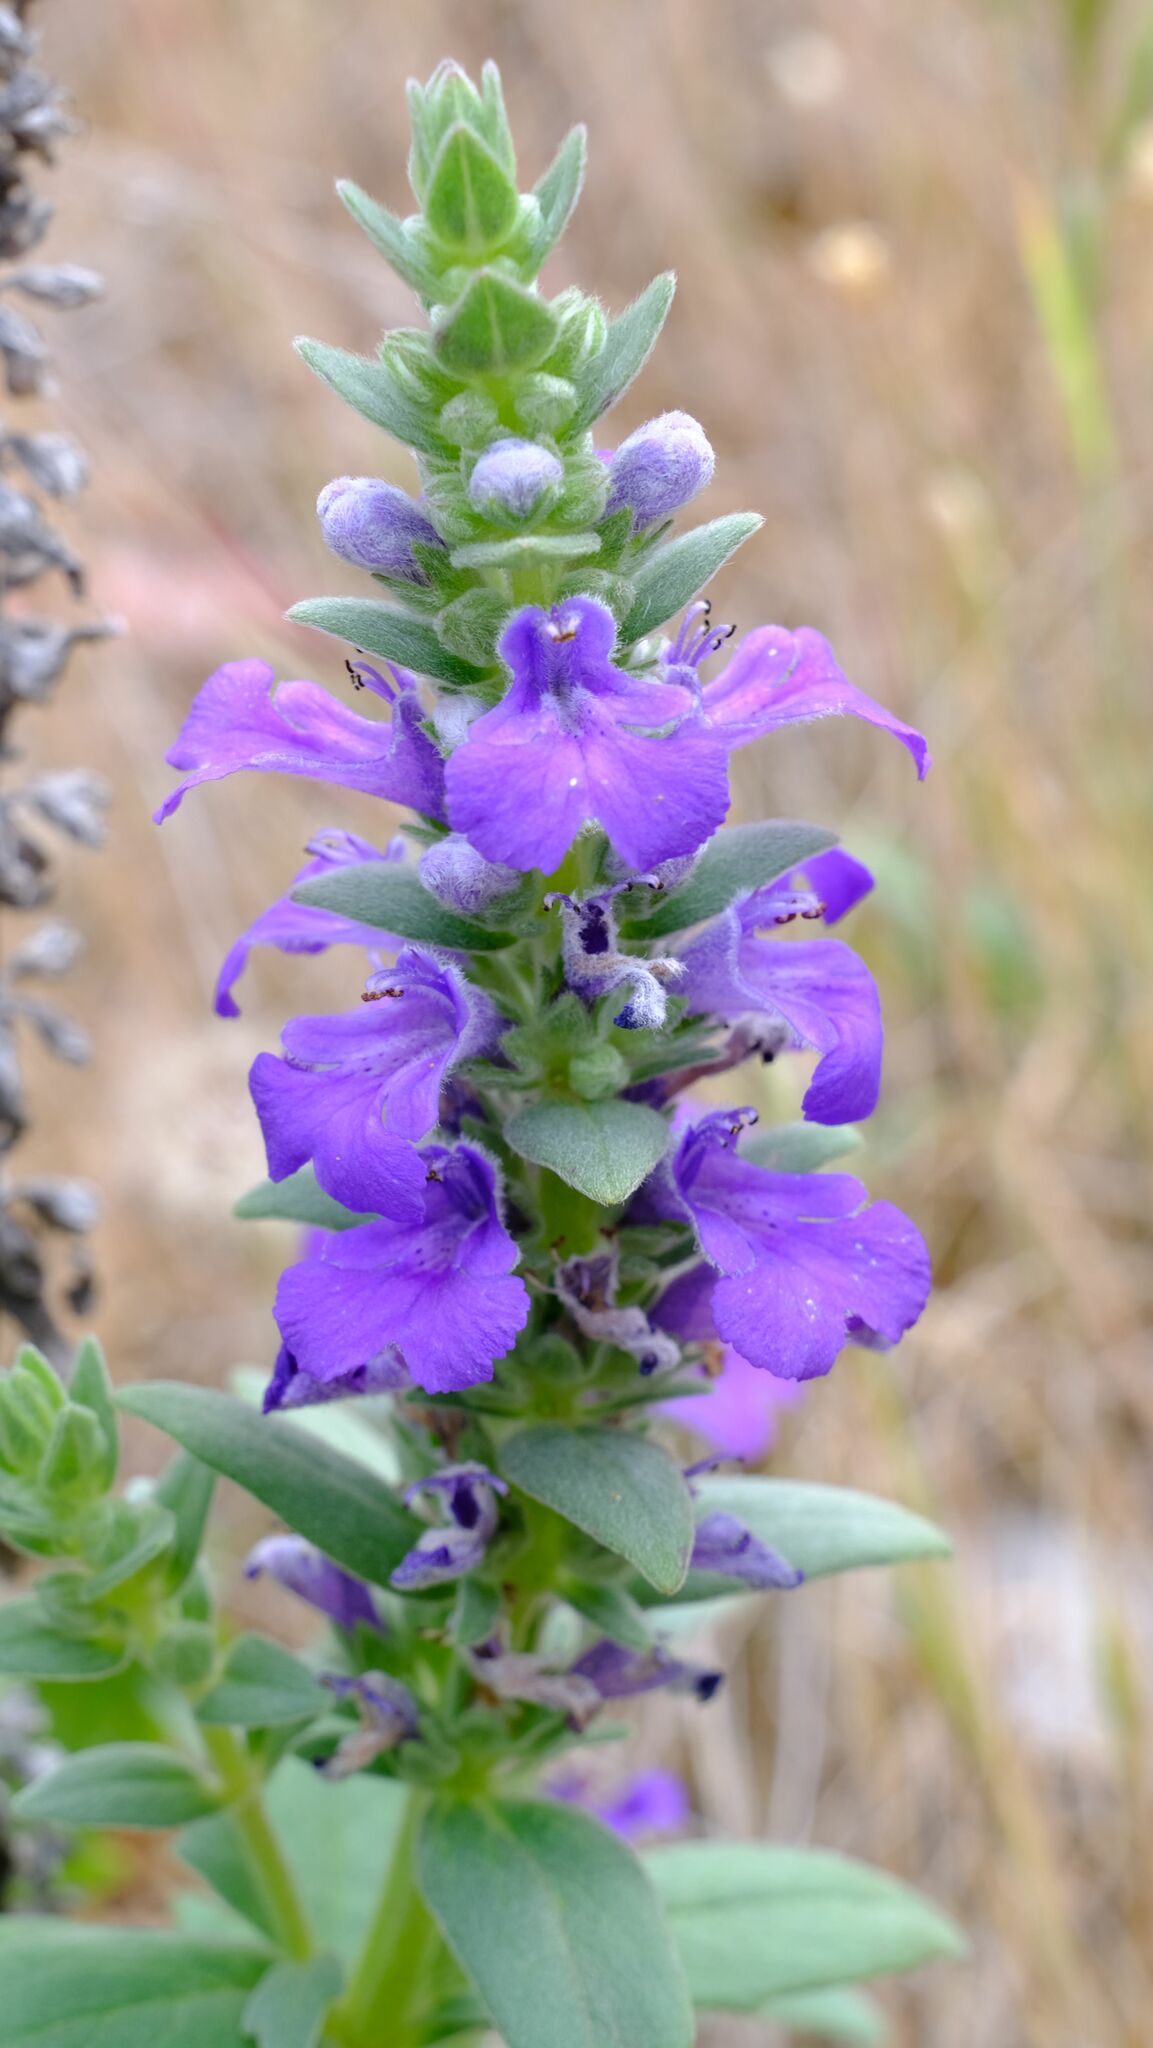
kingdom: Plantae
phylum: Tracheophyta
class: Magnoliopsida
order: Lamiales
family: Lamiaceae
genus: Ajuga
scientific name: Ajuga australis
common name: Australian bugle
